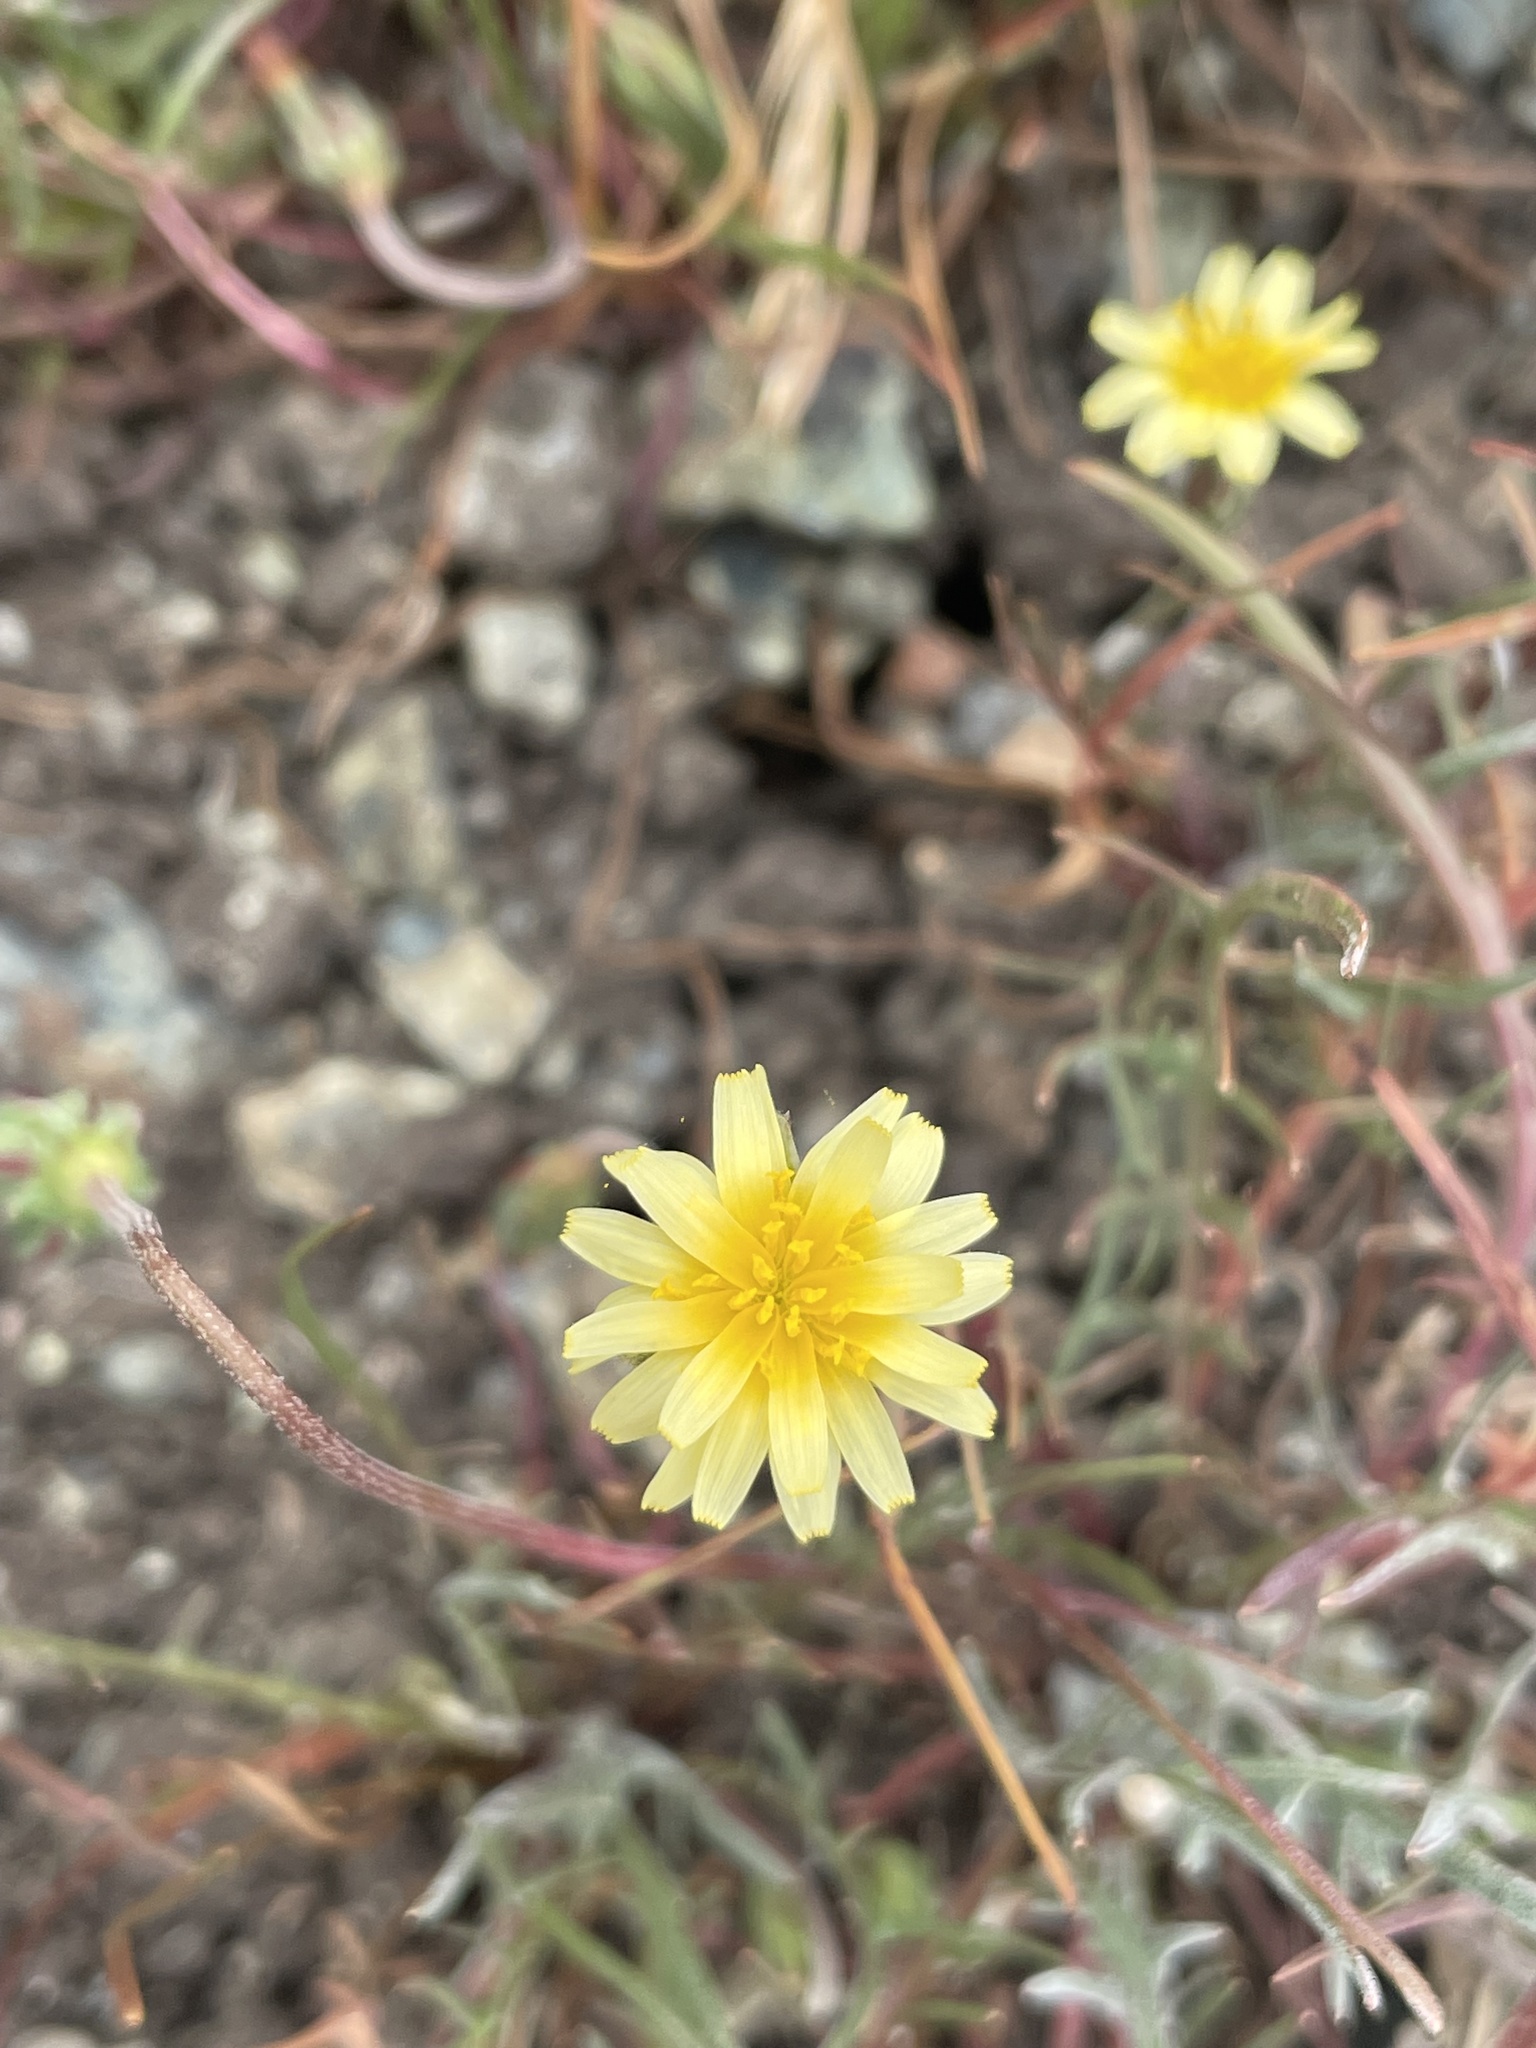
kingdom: Plantae
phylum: Tracheophyta
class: Magnoliopsida
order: Asterales
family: Asteraceae
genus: Microseris
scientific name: Microseris douglasii
